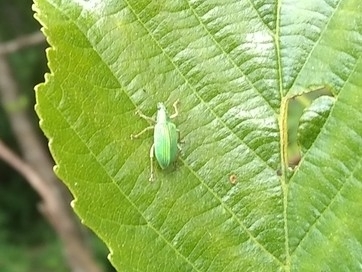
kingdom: Animalia
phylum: Arthropoda
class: Insecta
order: Coleoptera
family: Curculionidae
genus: Polydrusus
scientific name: Polydrusus formosus
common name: Weevil
